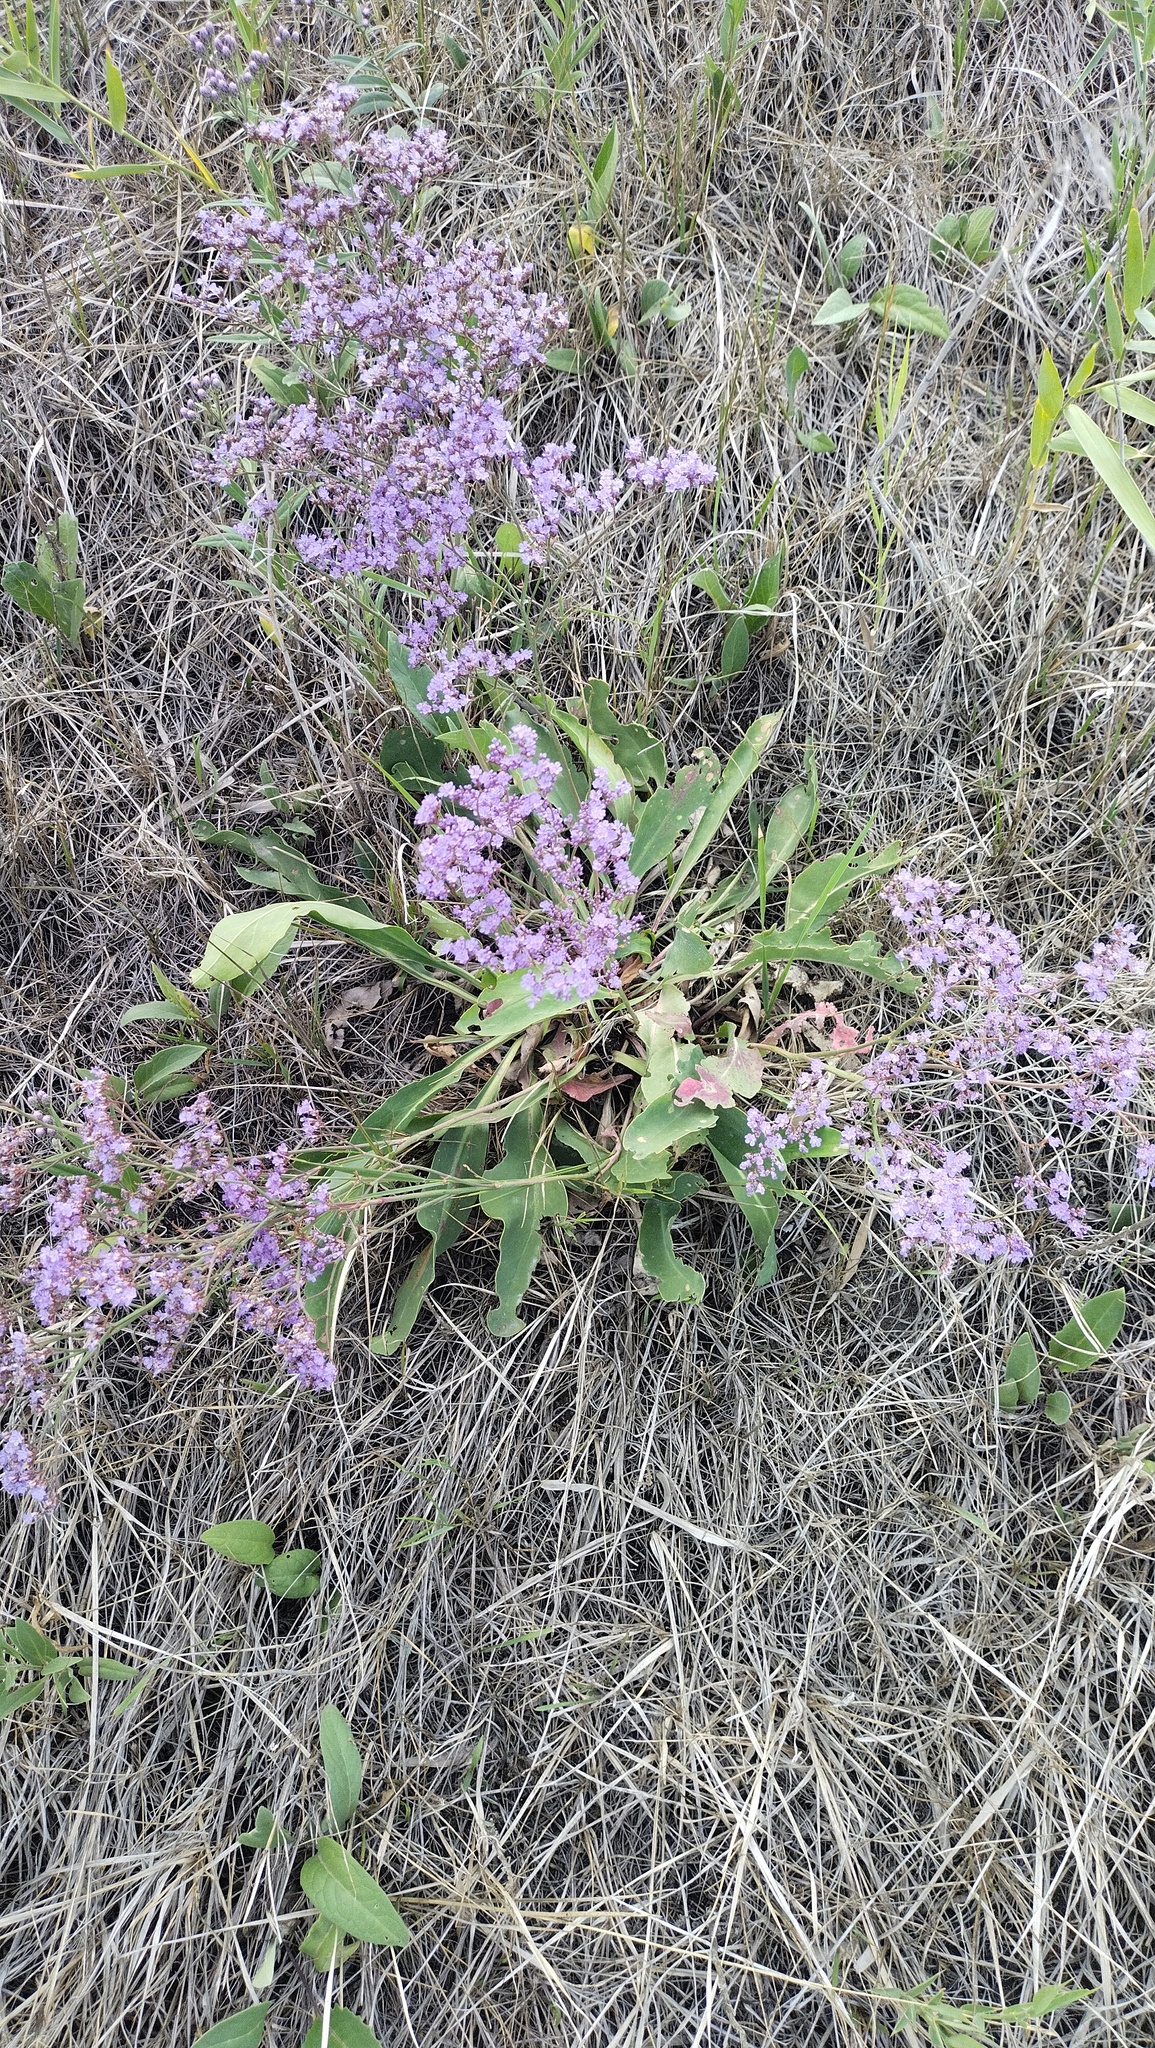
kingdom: Plantae
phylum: Tracheophyta
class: Magnoliopsida
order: Caryophyllales
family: Plumbaginaceae
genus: Limonium
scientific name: Limonium gmelini
